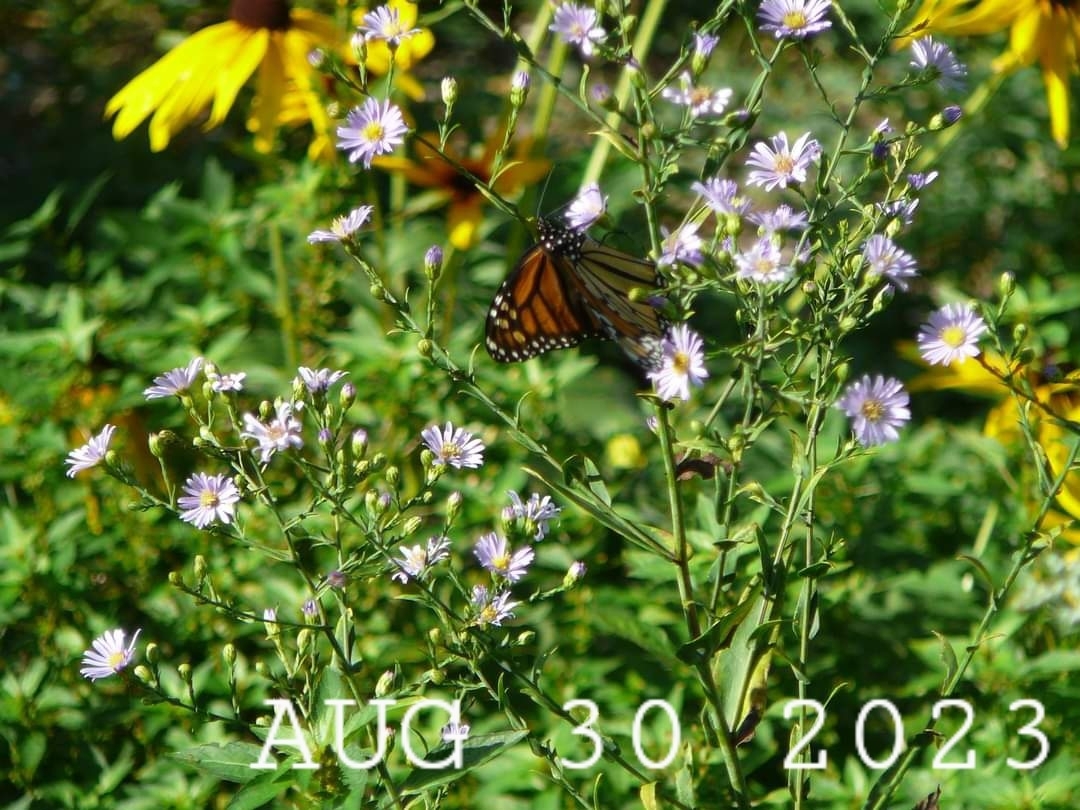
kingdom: Animalia
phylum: Arthropoda
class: Insecta
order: Lepidoptera
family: Nymphalidae
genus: Danaus
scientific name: Danaus plexippus
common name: Monarch
